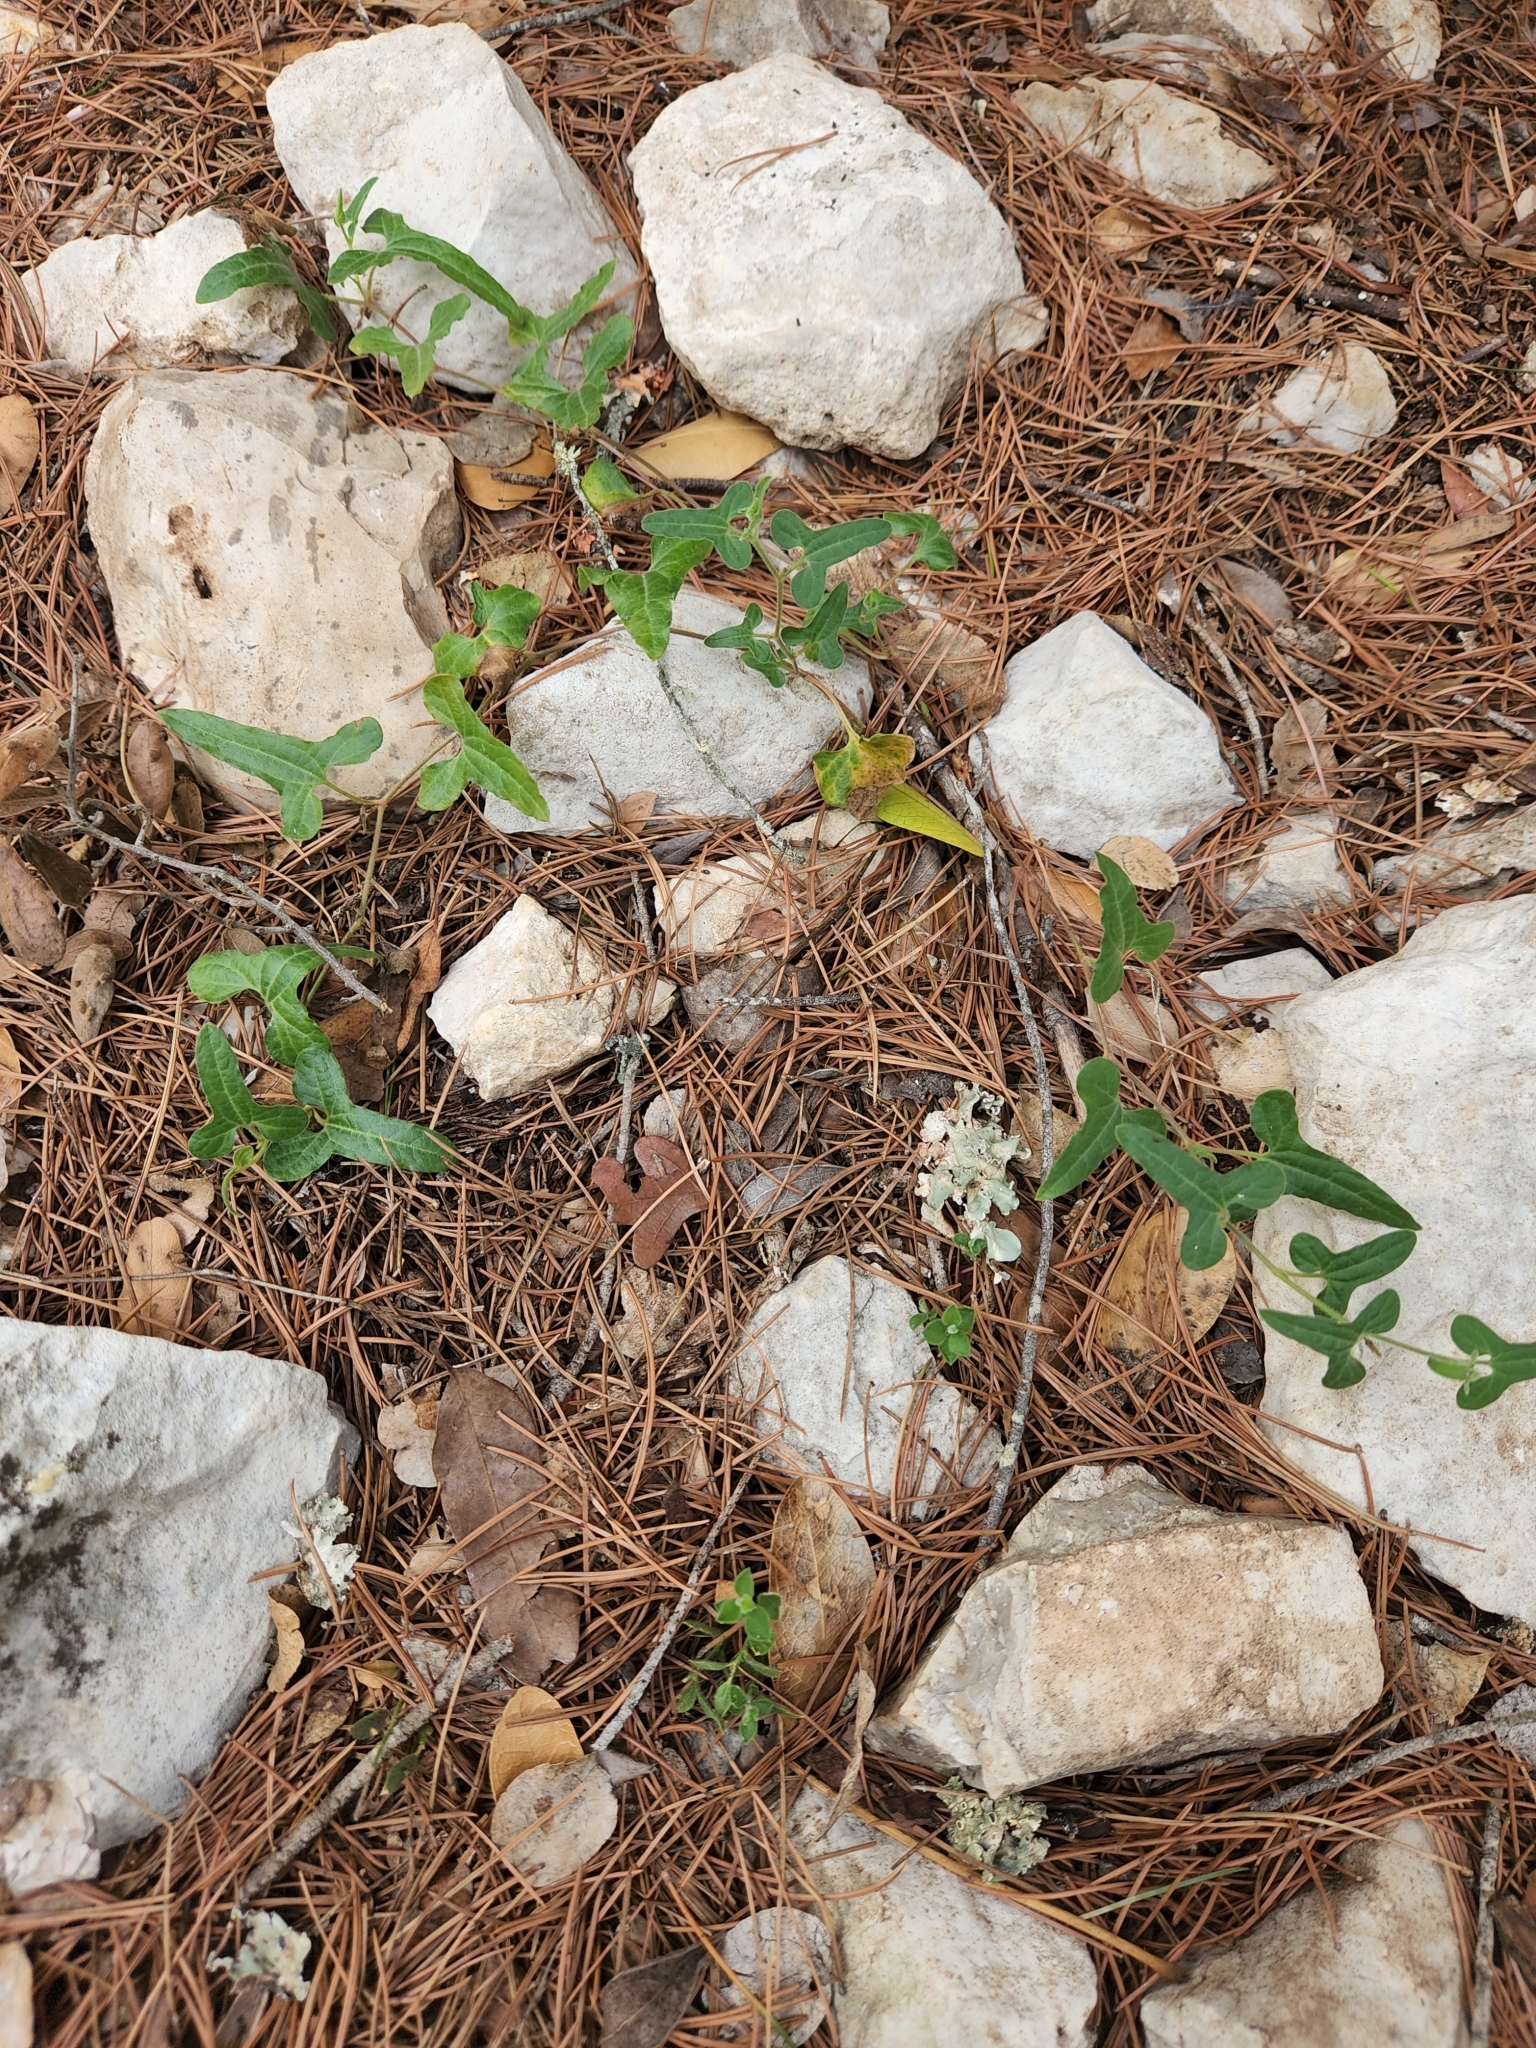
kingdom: Plantae
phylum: Tracheophyta
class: Magnoliopsida
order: Piperales
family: Aristolochiaceae
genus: Aristolochia
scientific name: Aristolochia coryi
